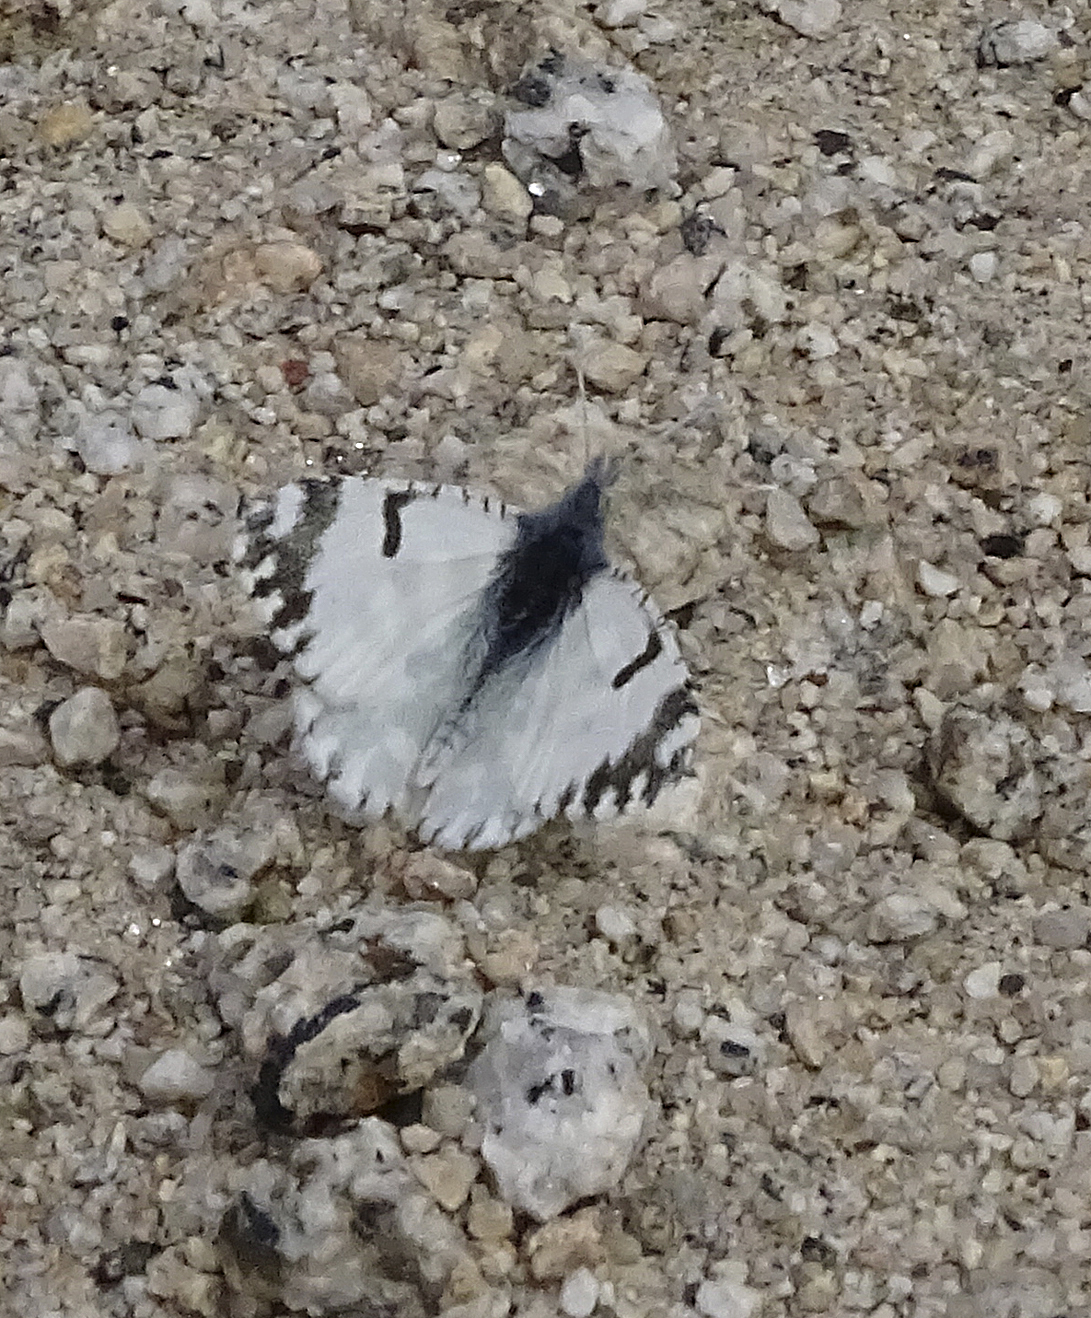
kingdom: Animalia
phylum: Arthropoda
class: Insecta
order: Lepidoptera
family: Pieridae
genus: Euchloe
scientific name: Euchloe lotta
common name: Desert marble
